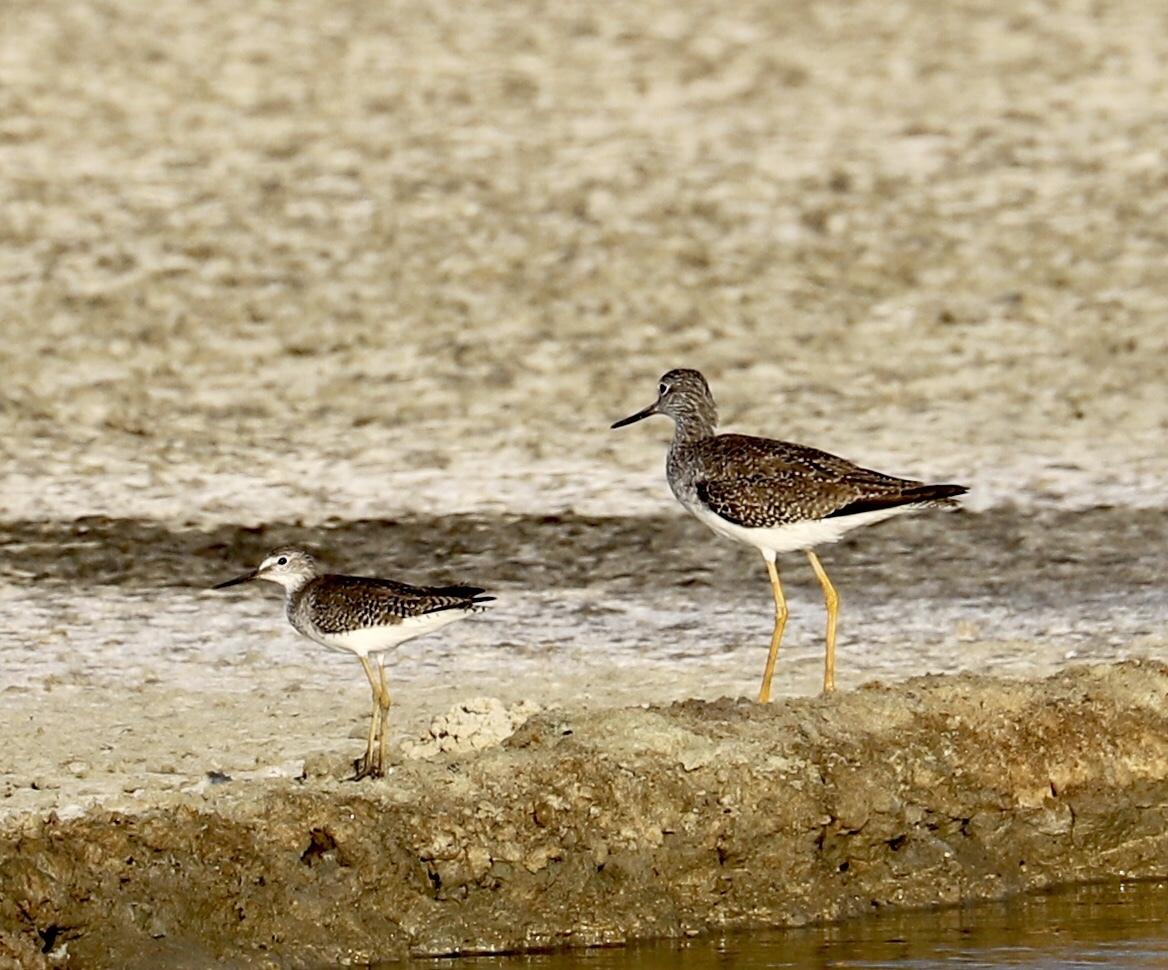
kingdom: Animalia
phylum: Chordata
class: Aves
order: Charadriiformes
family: Scolopacidae
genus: Tringa
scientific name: Tringa melanoleuca
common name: Greater yellowlegs
